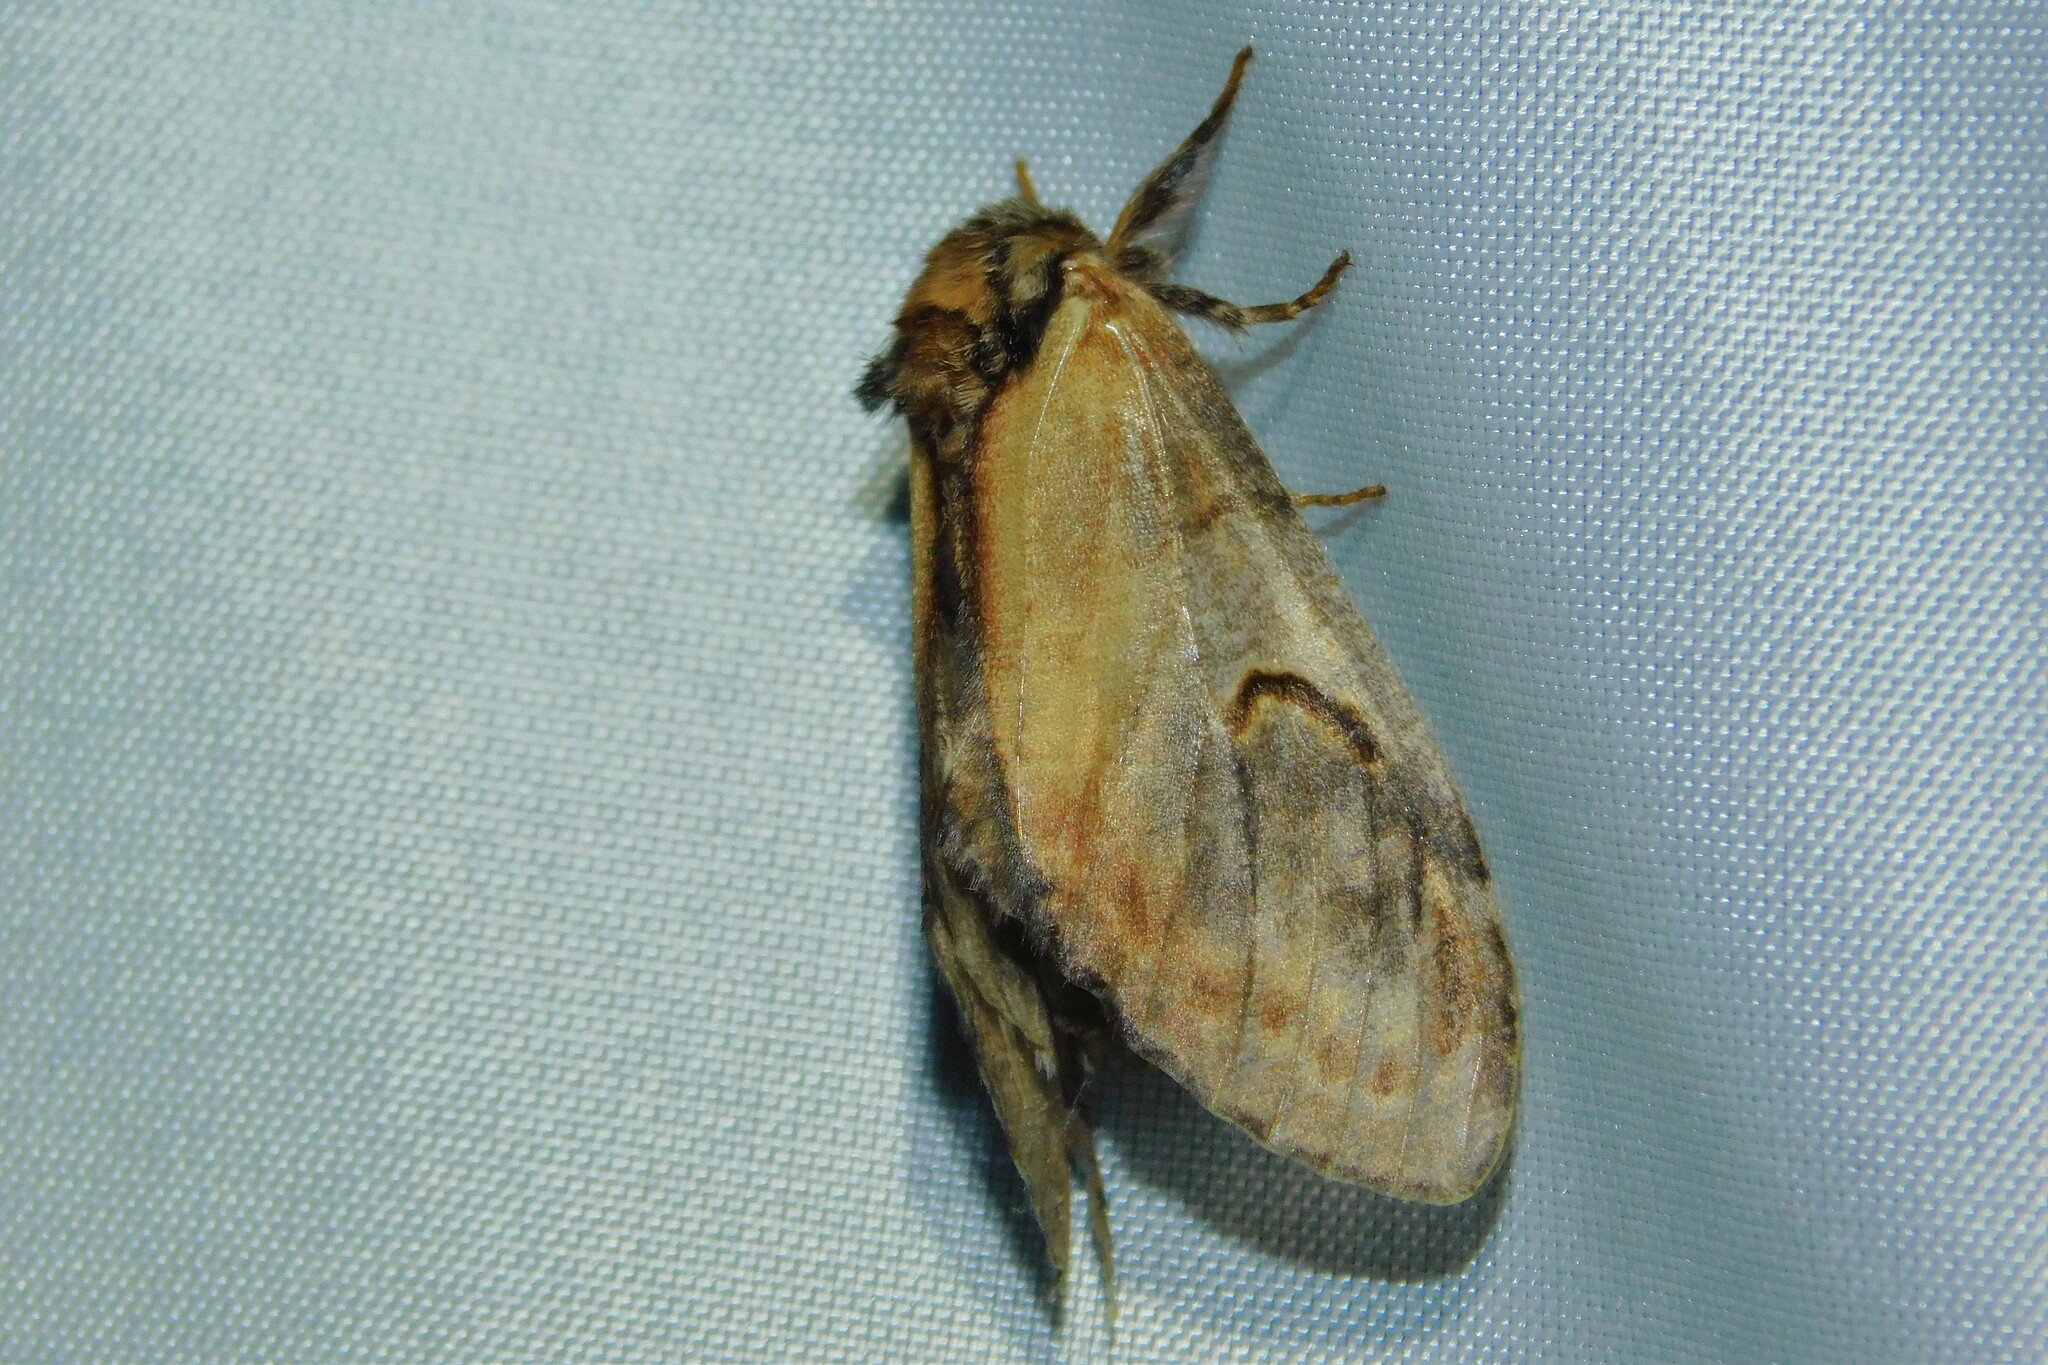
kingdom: Animalia
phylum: Arthropoda
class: Insecta
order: Lepidoptera
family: Notodontidae
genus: Notodonta
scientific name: Notodonta ziczac
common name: Pebble prominent
